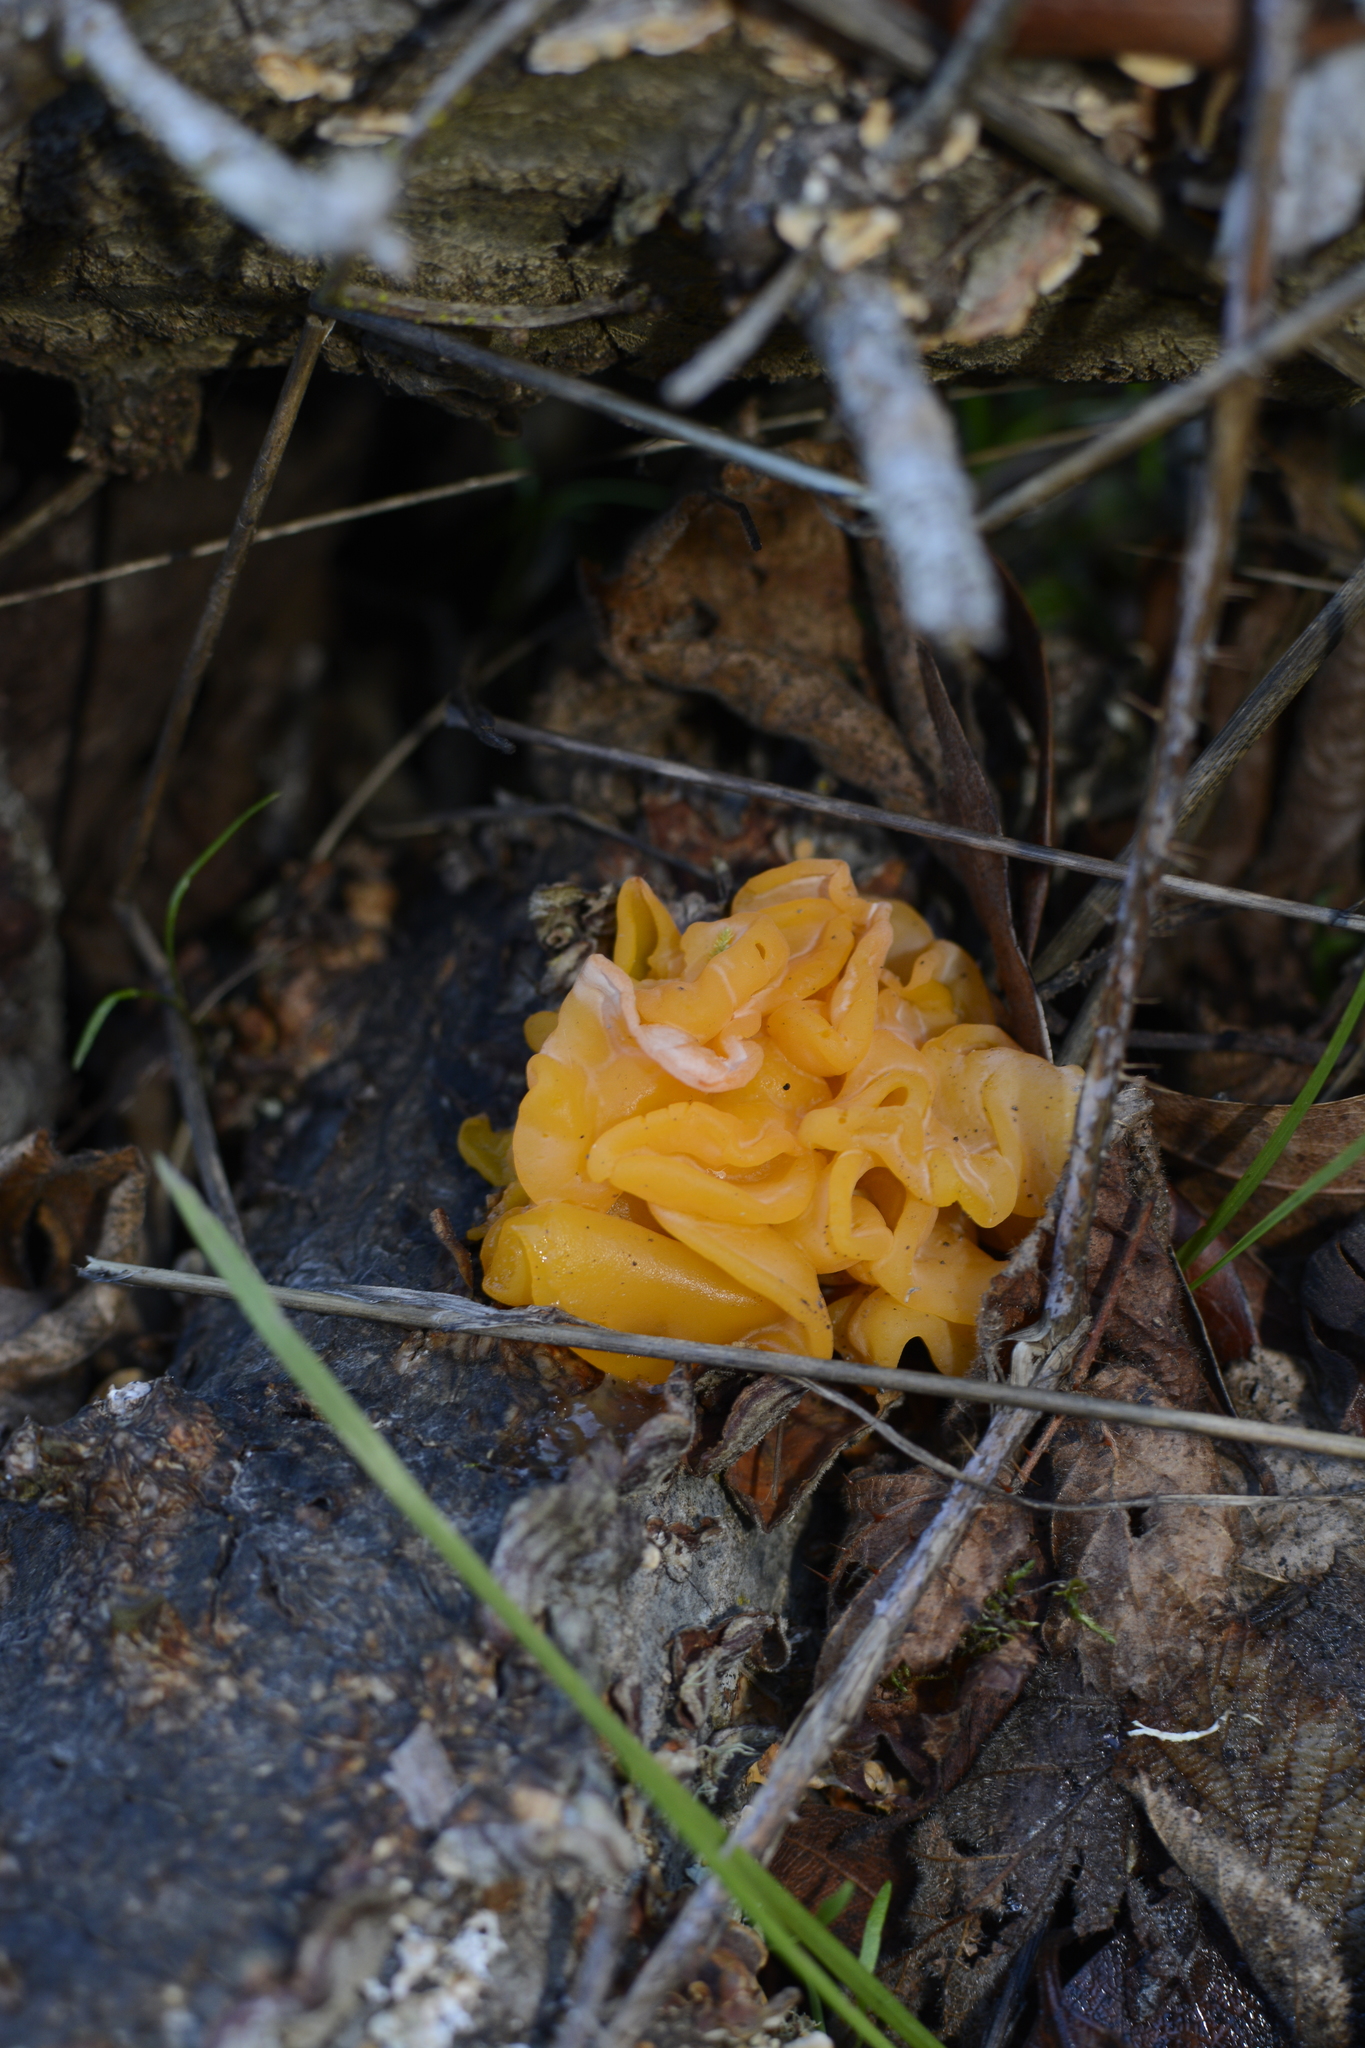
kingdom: Fungi
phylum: Basidiomycota
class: Tremellomycetes
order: Tremellales
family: Naemateliaceae
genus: Naematelia
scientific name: Naematelia aurantia
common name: Golden ear
